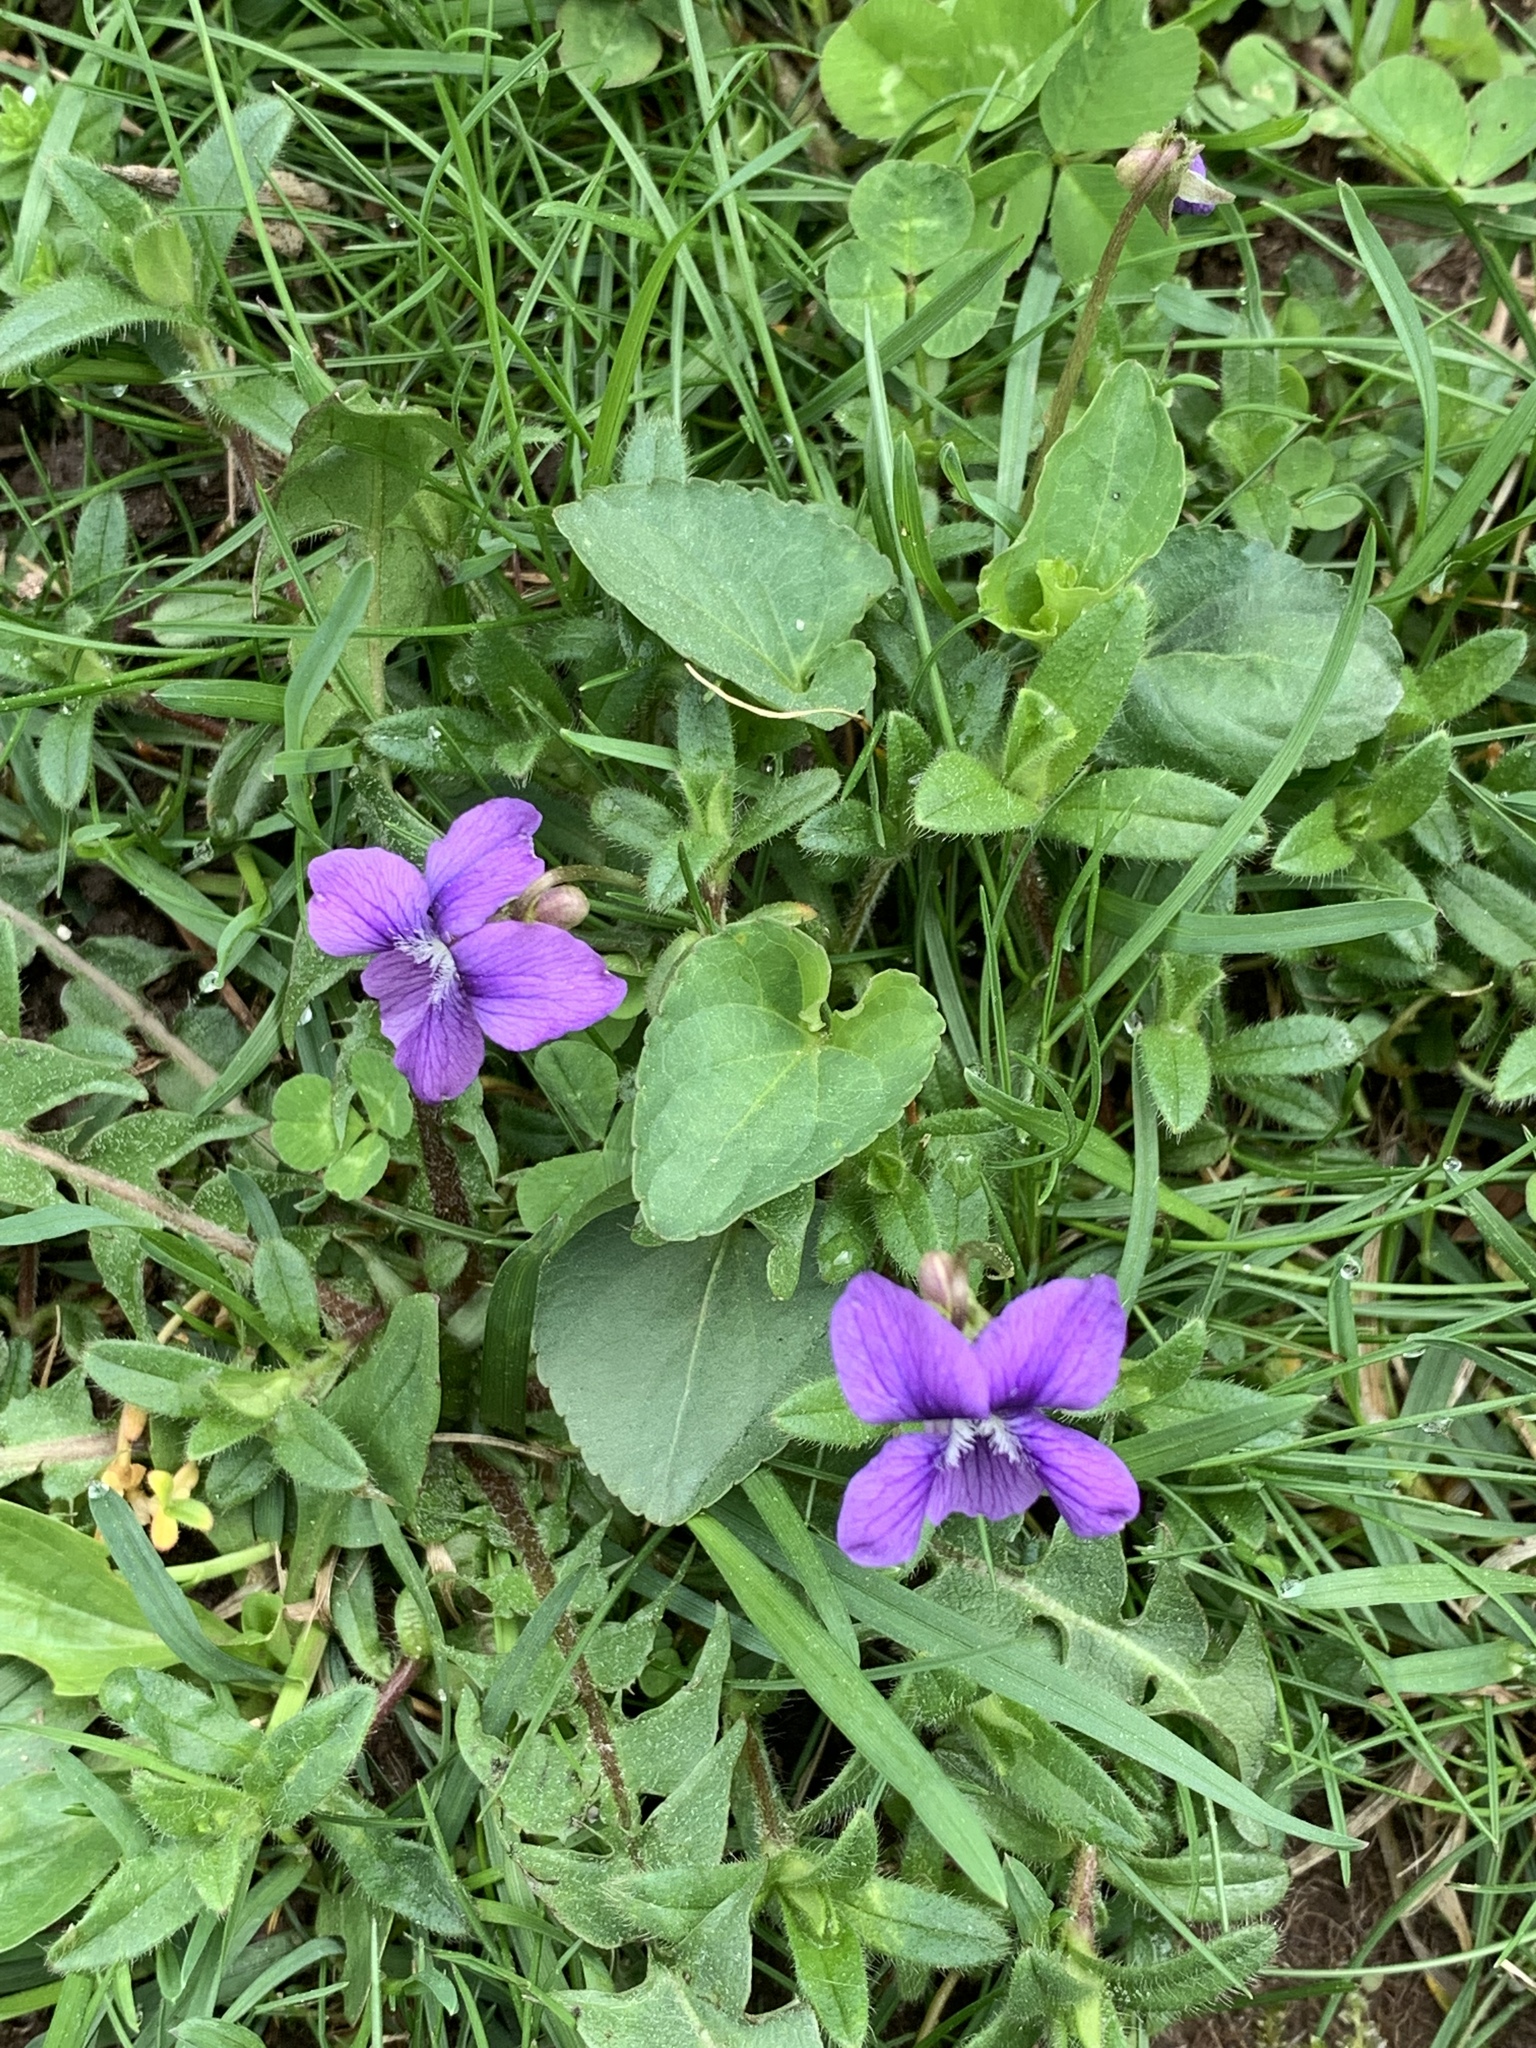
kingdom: Plantae
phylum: Tracheophyta
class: Magnoliopsida
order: Malpighiales
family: Violaceae
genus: Viola
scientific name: Viola sororia
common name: Dooryard violet
